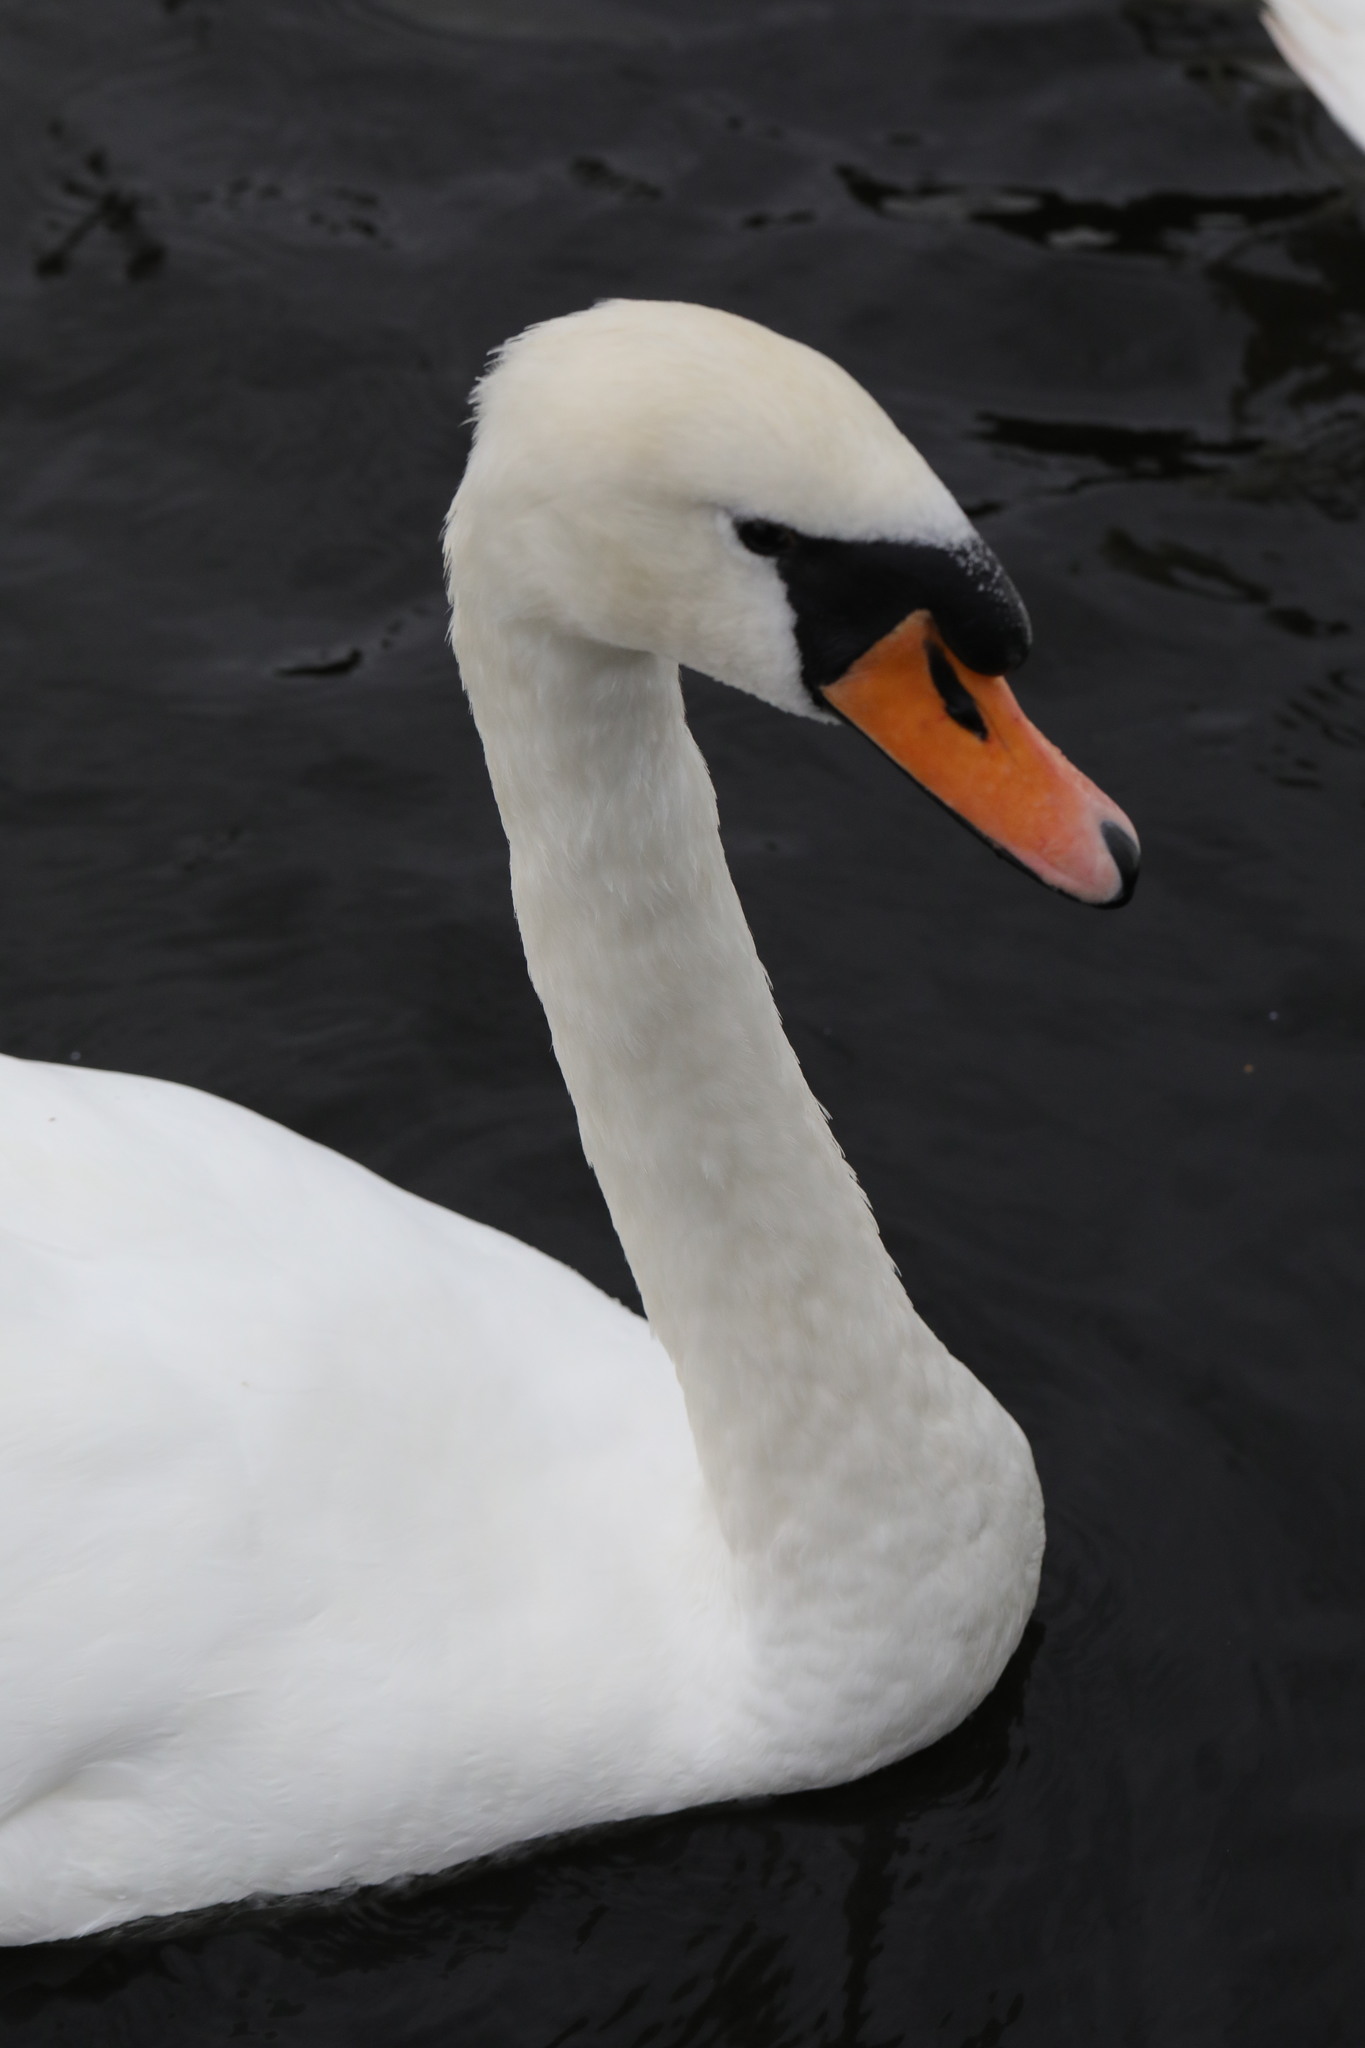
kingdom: Animalia
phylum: Chordata
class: Aves
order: Anseriformes
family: Anatidae
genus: Cygnus
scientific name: Cygnus olor
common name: Mute swan
